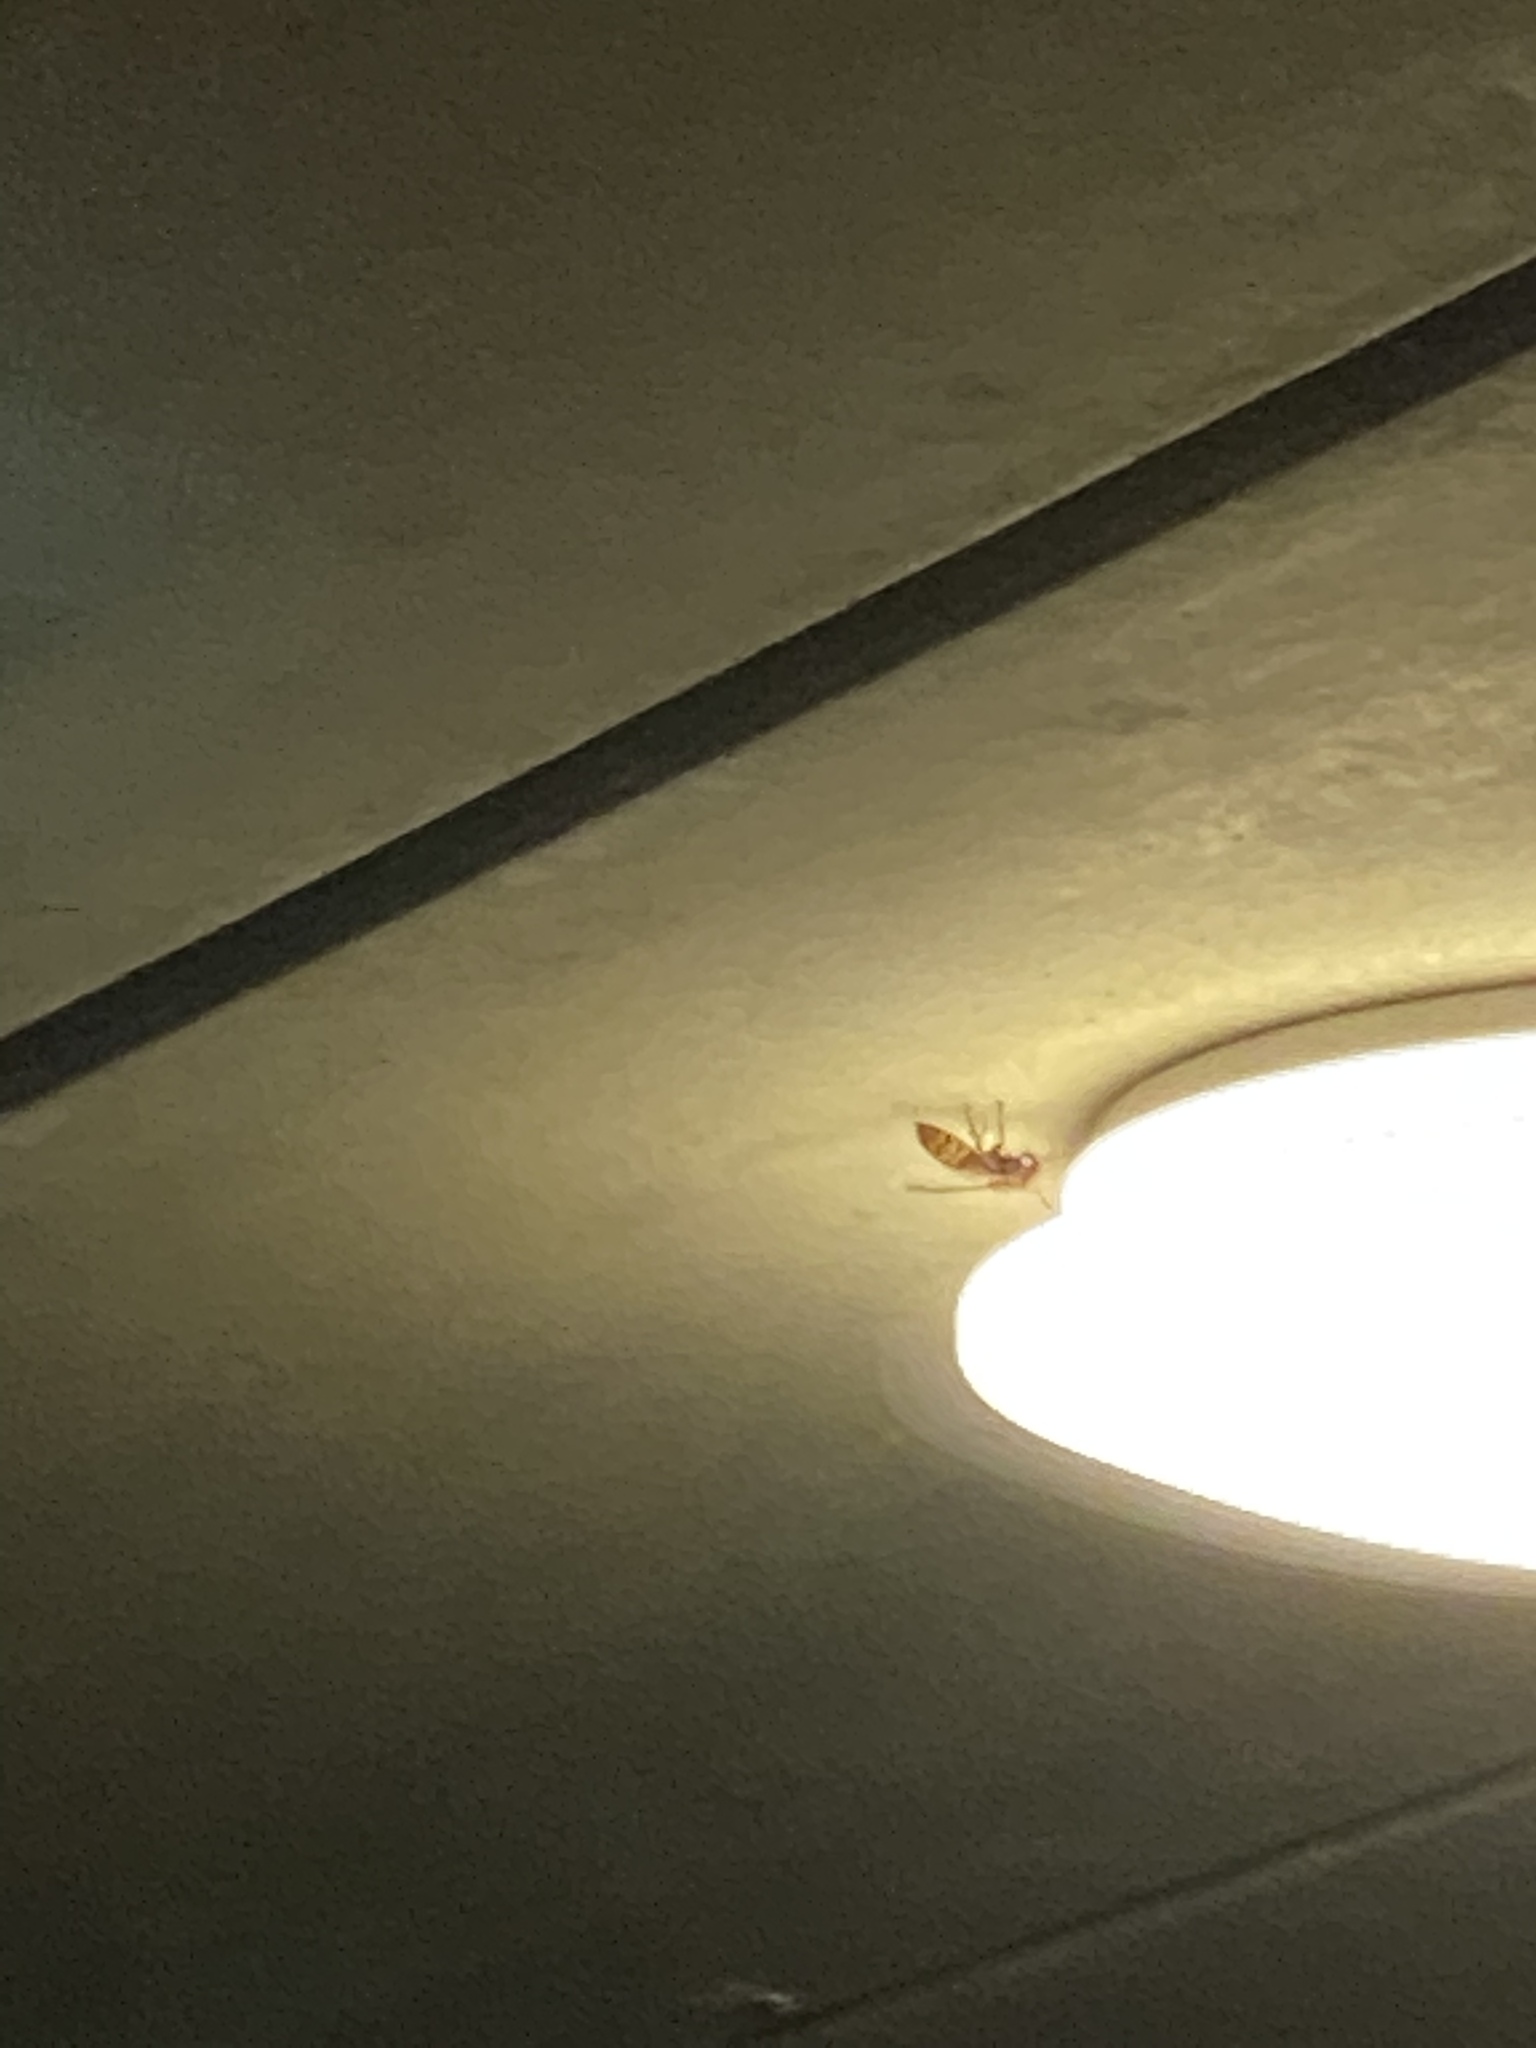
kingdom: Animalia
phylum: Arthropoda
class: Insecta
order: Hymenoptera
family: Vespidae
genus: Vespa
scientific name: Vespa crabro
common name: Hornet
